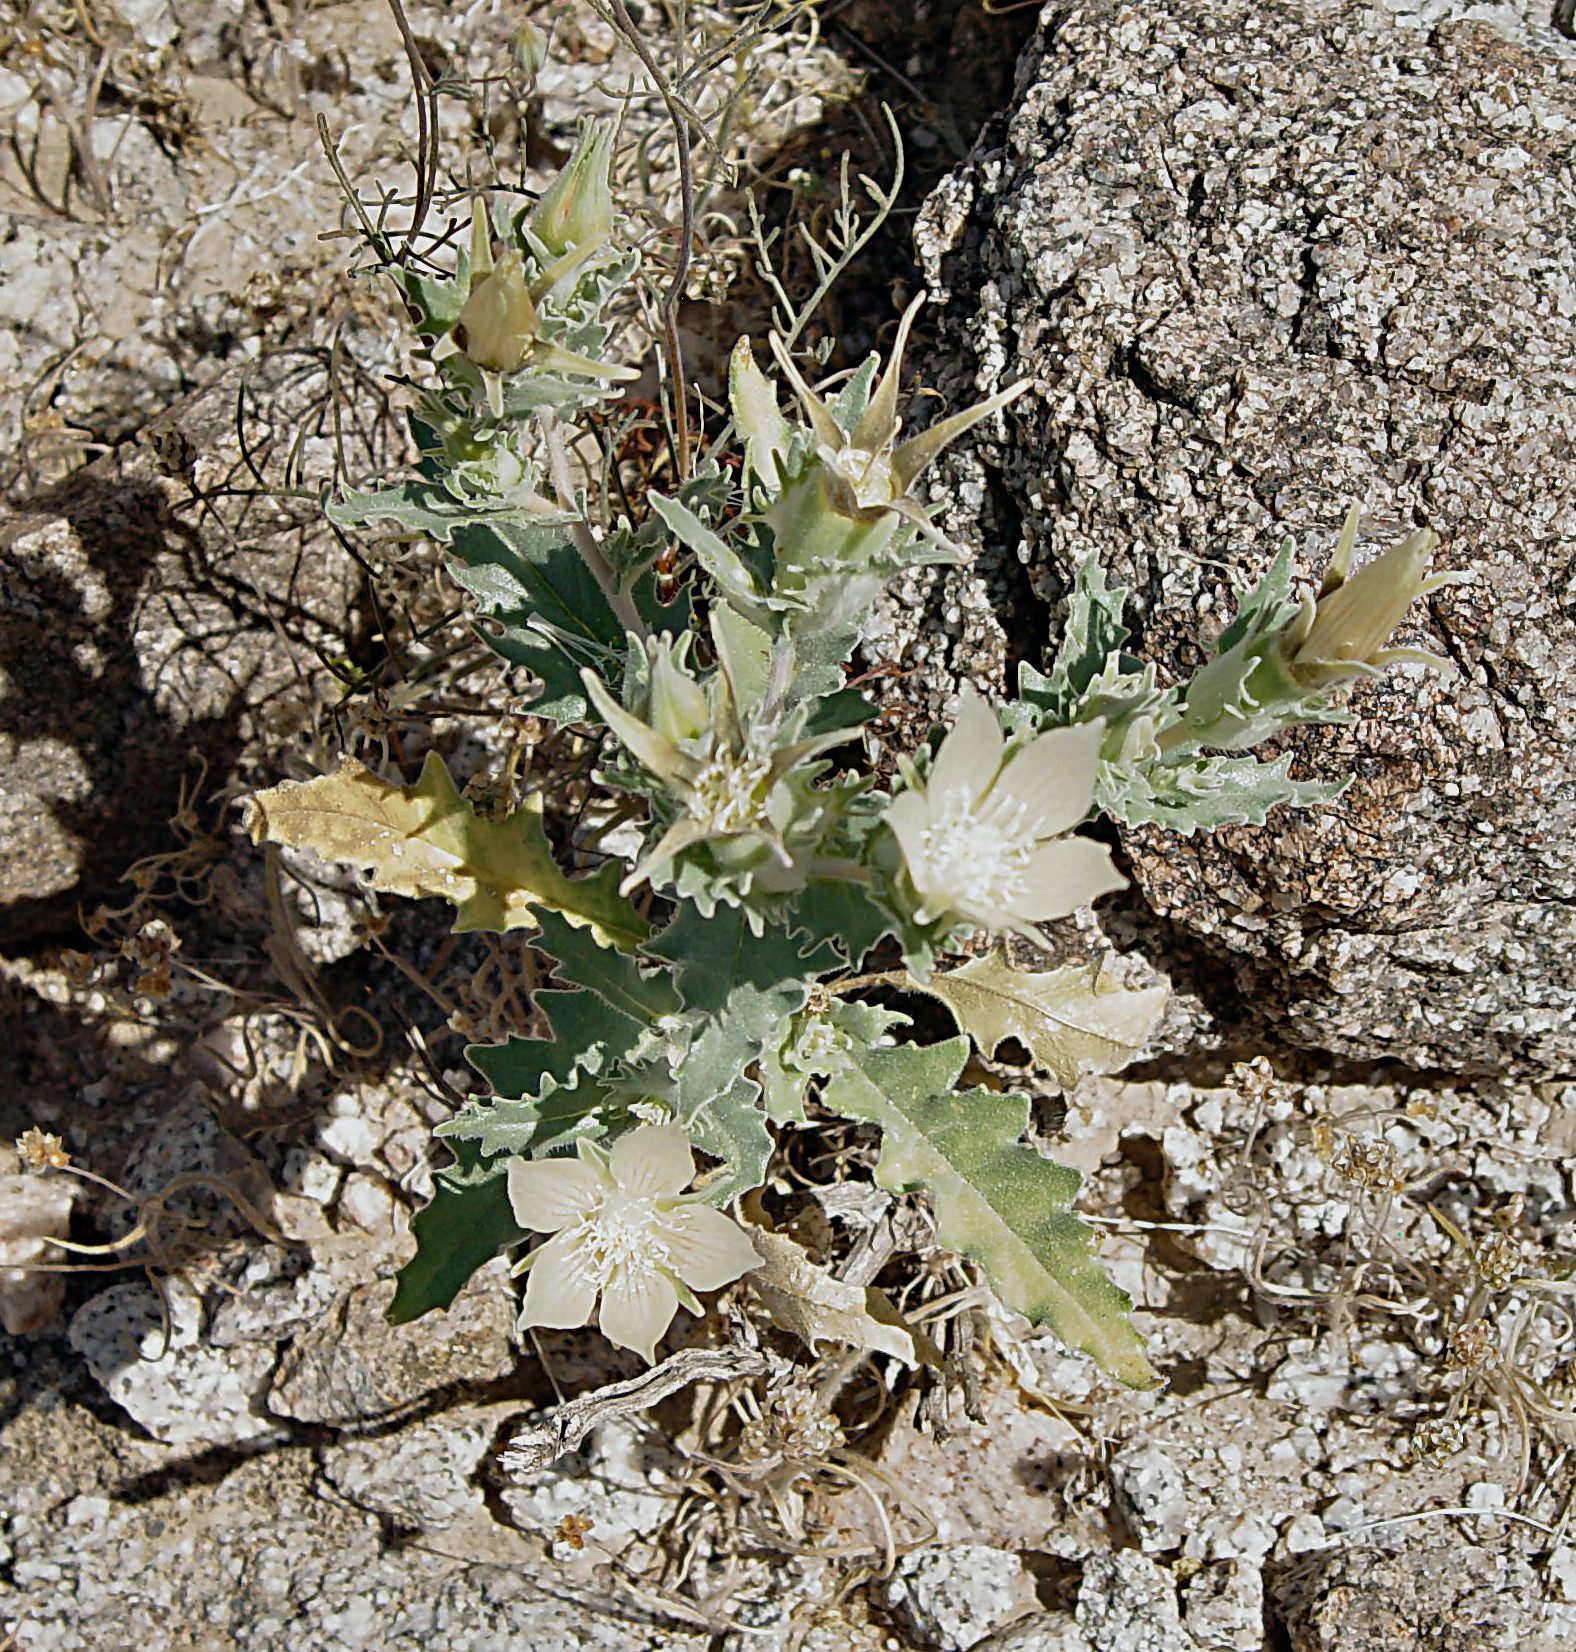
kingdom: Plantae
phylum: Tracheophyta
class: Magnoliopsida
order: Cornales
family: Loasaceae
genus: Mentzelia
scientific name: Mentzelia involucrata
